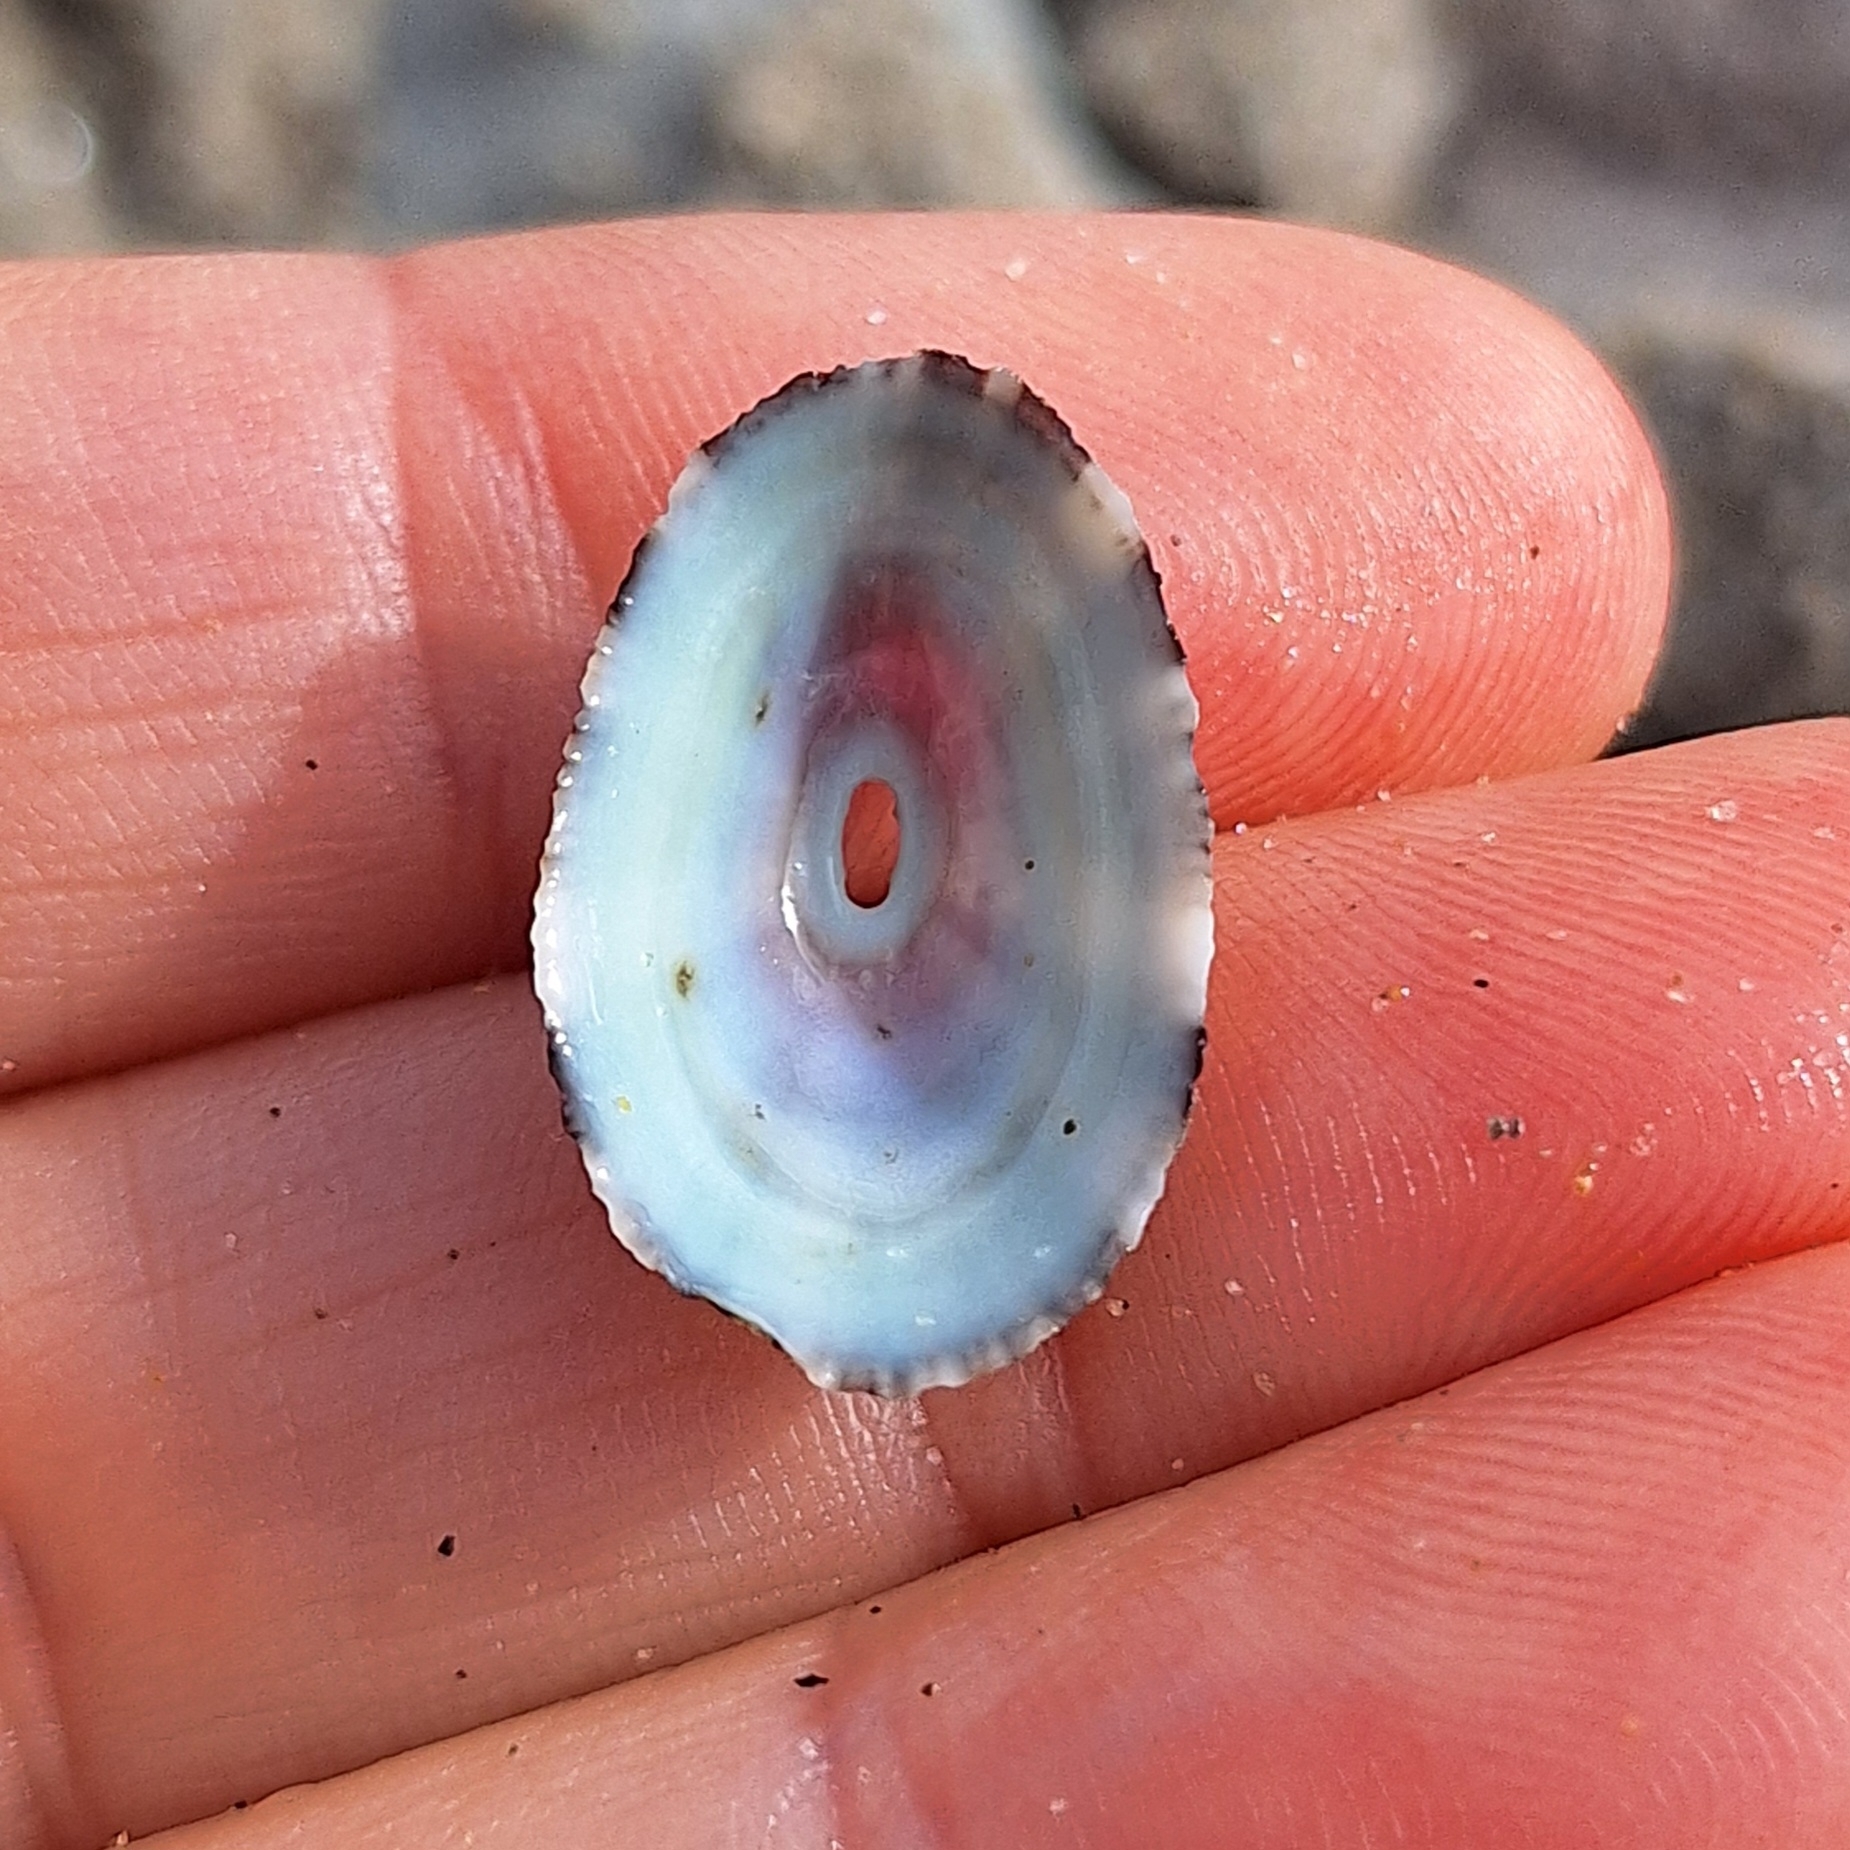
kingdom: Animalia
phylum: Mollusca
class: Gastropoda
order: Lepetellida
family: Fissurellidae
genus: Fissurella
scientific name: Fissurella nubecula
